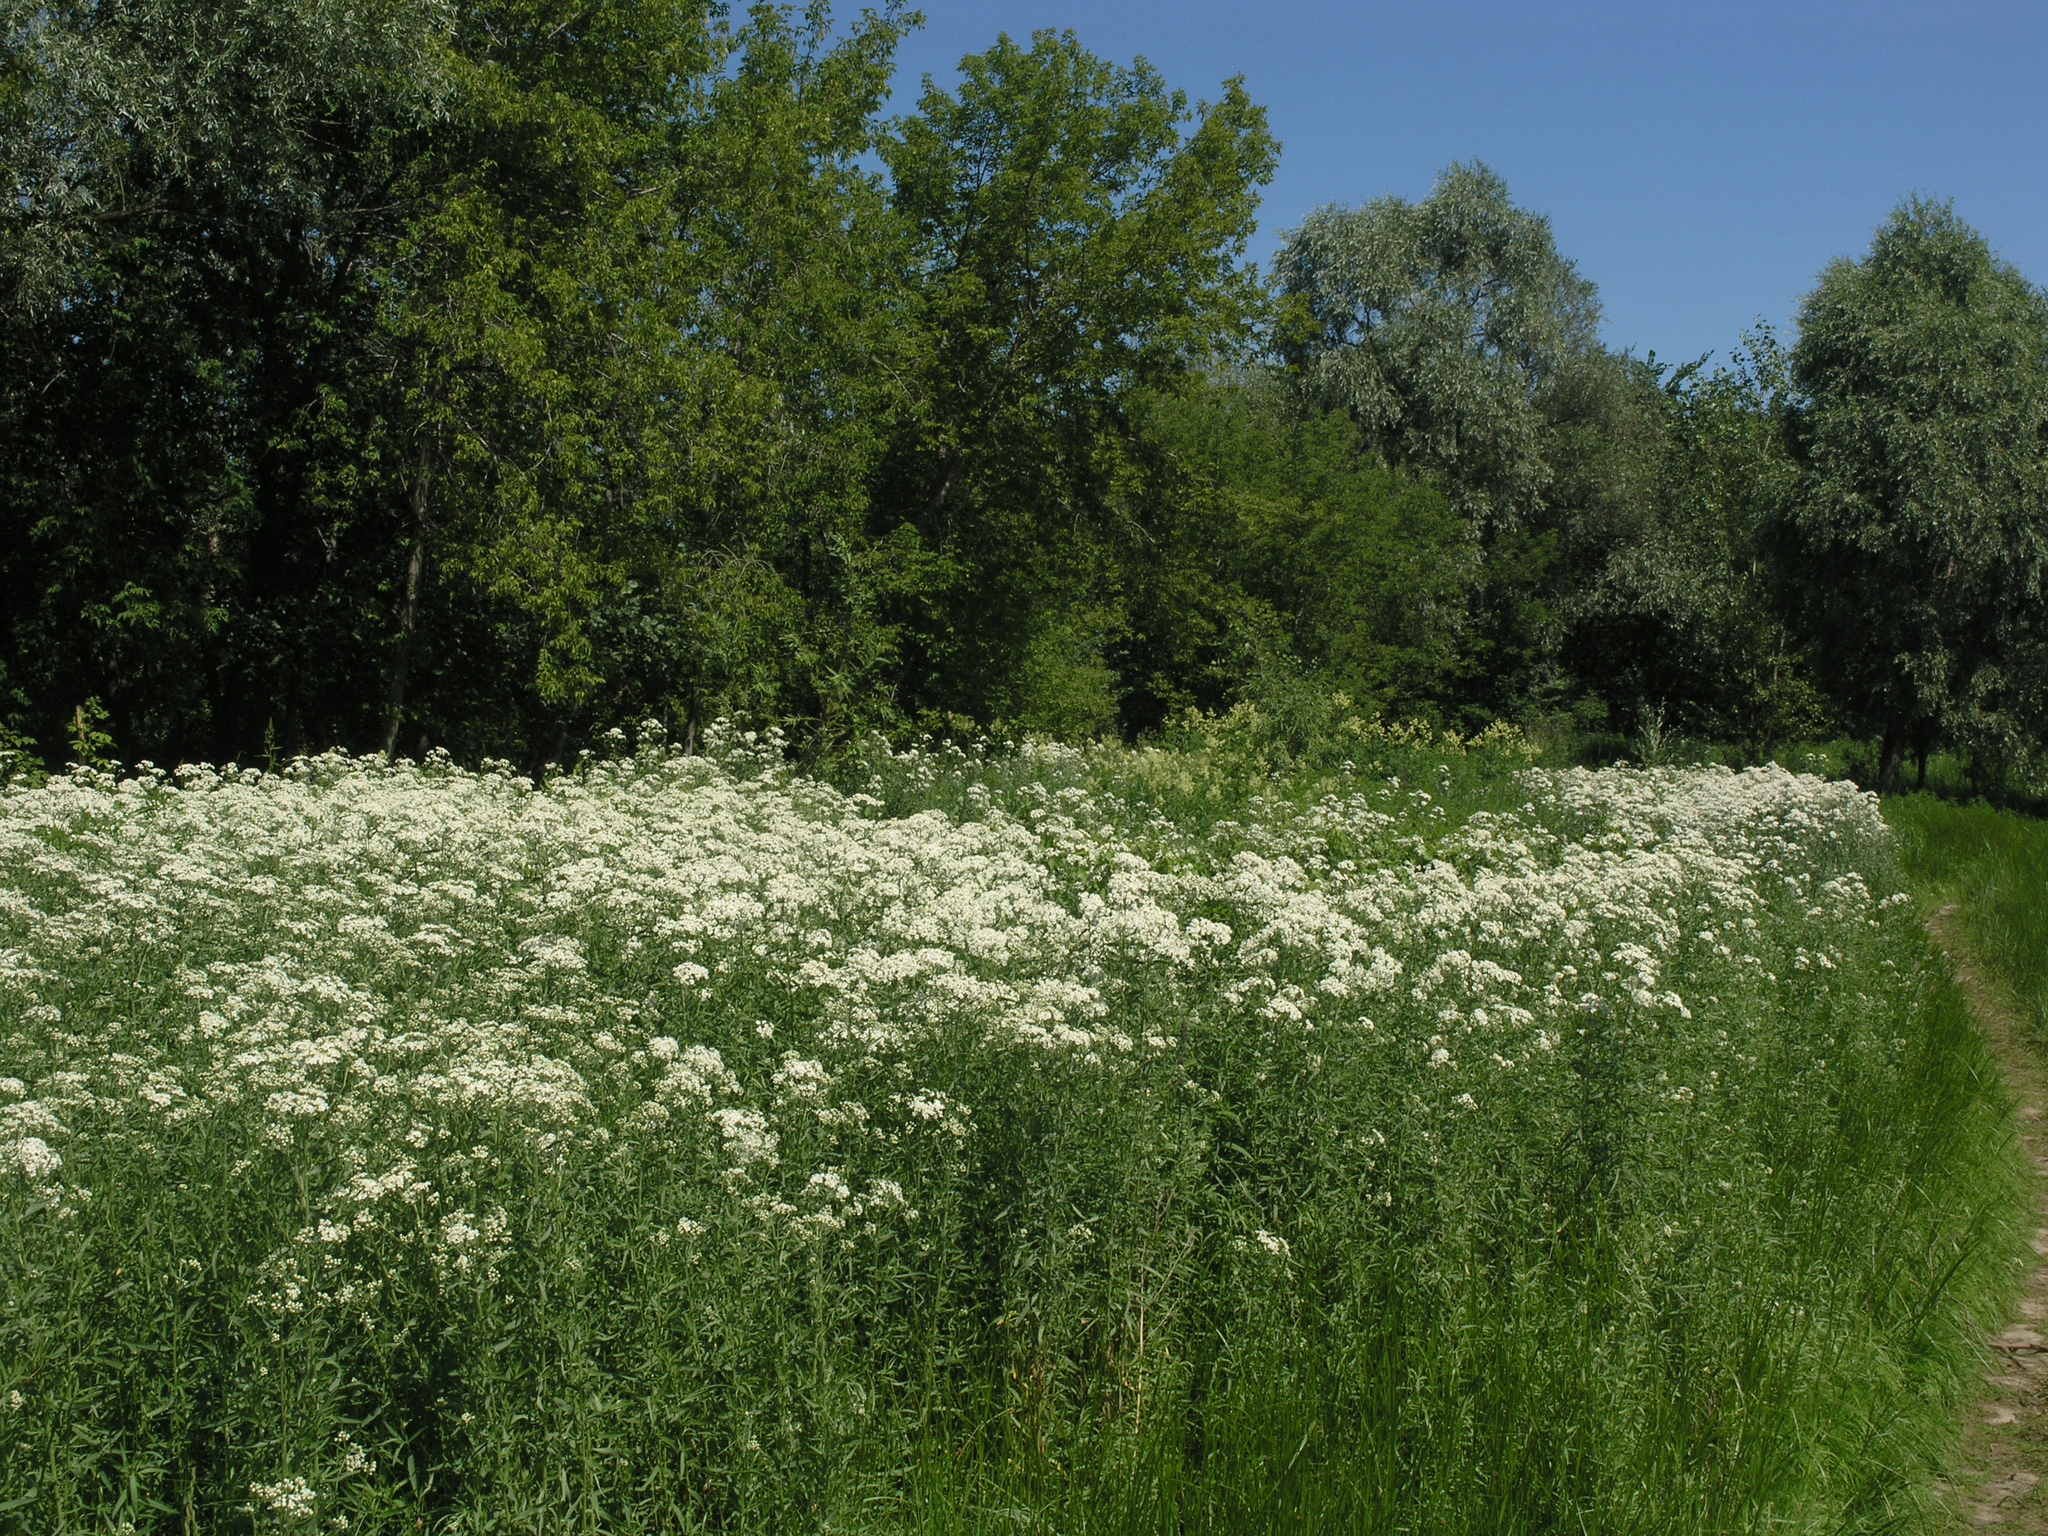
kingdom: Plantae
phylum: Tracheophyta
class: Magnoliopsida
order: Asterales
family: Asteraceae
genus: Achillea
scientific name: Achillea salicifolia
